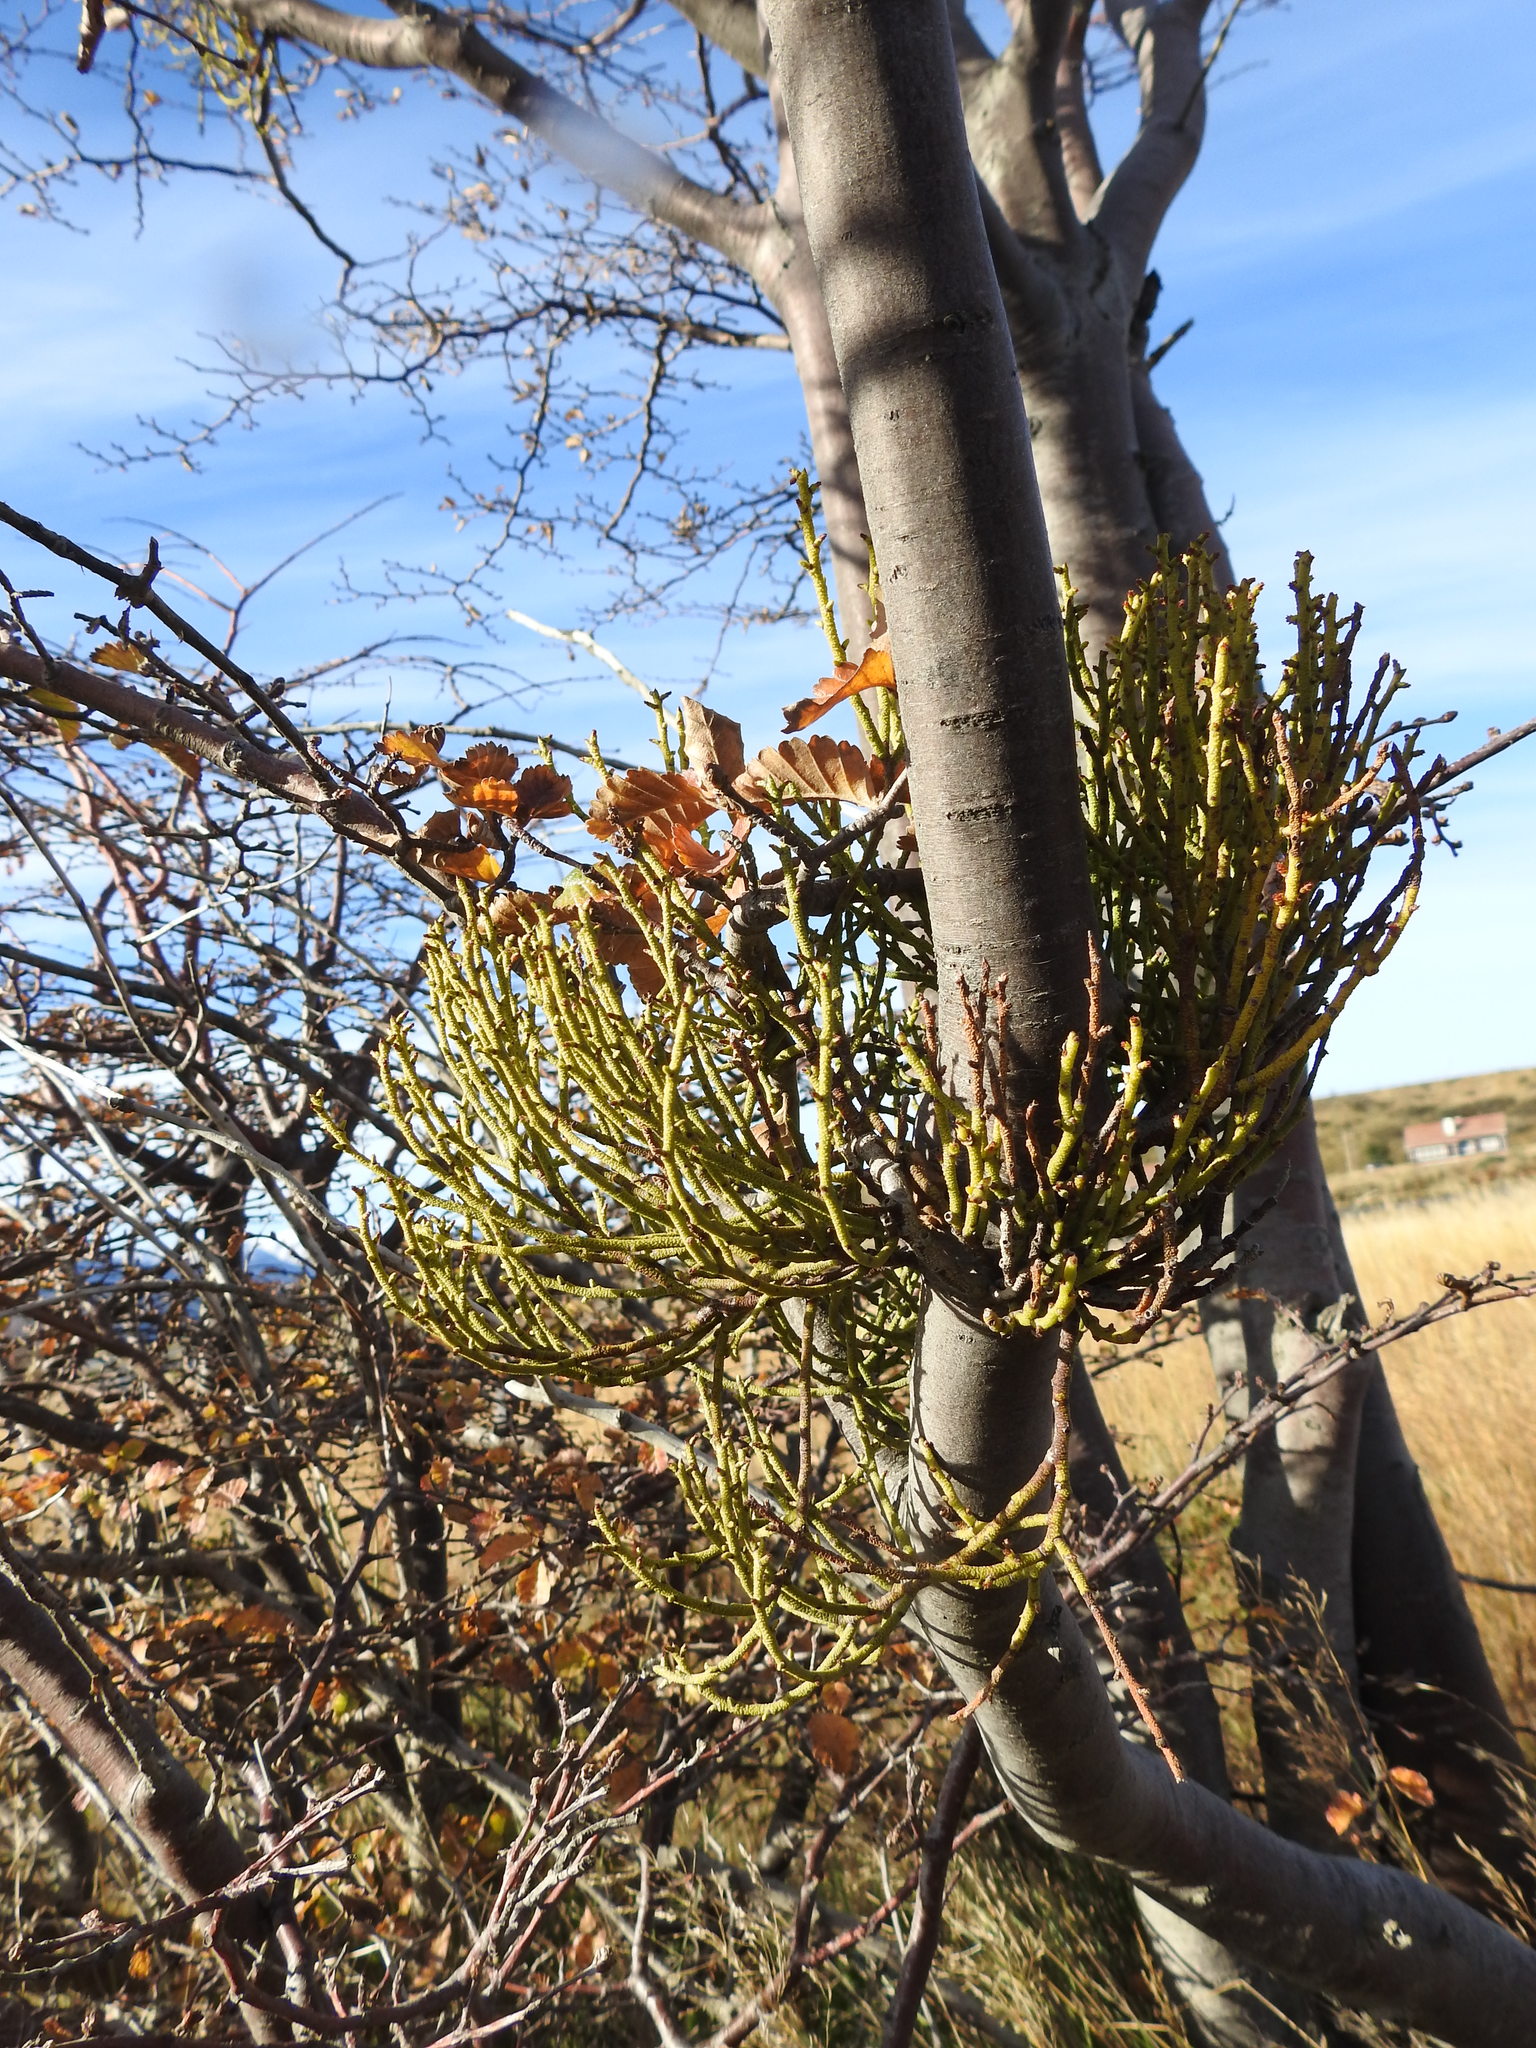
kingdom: Plantae
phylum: Tracheophyta
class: Magnoliopsida
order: Santalales
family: Misodendraceae
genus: Misodendrum
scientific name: Misodendrum punctulatum
